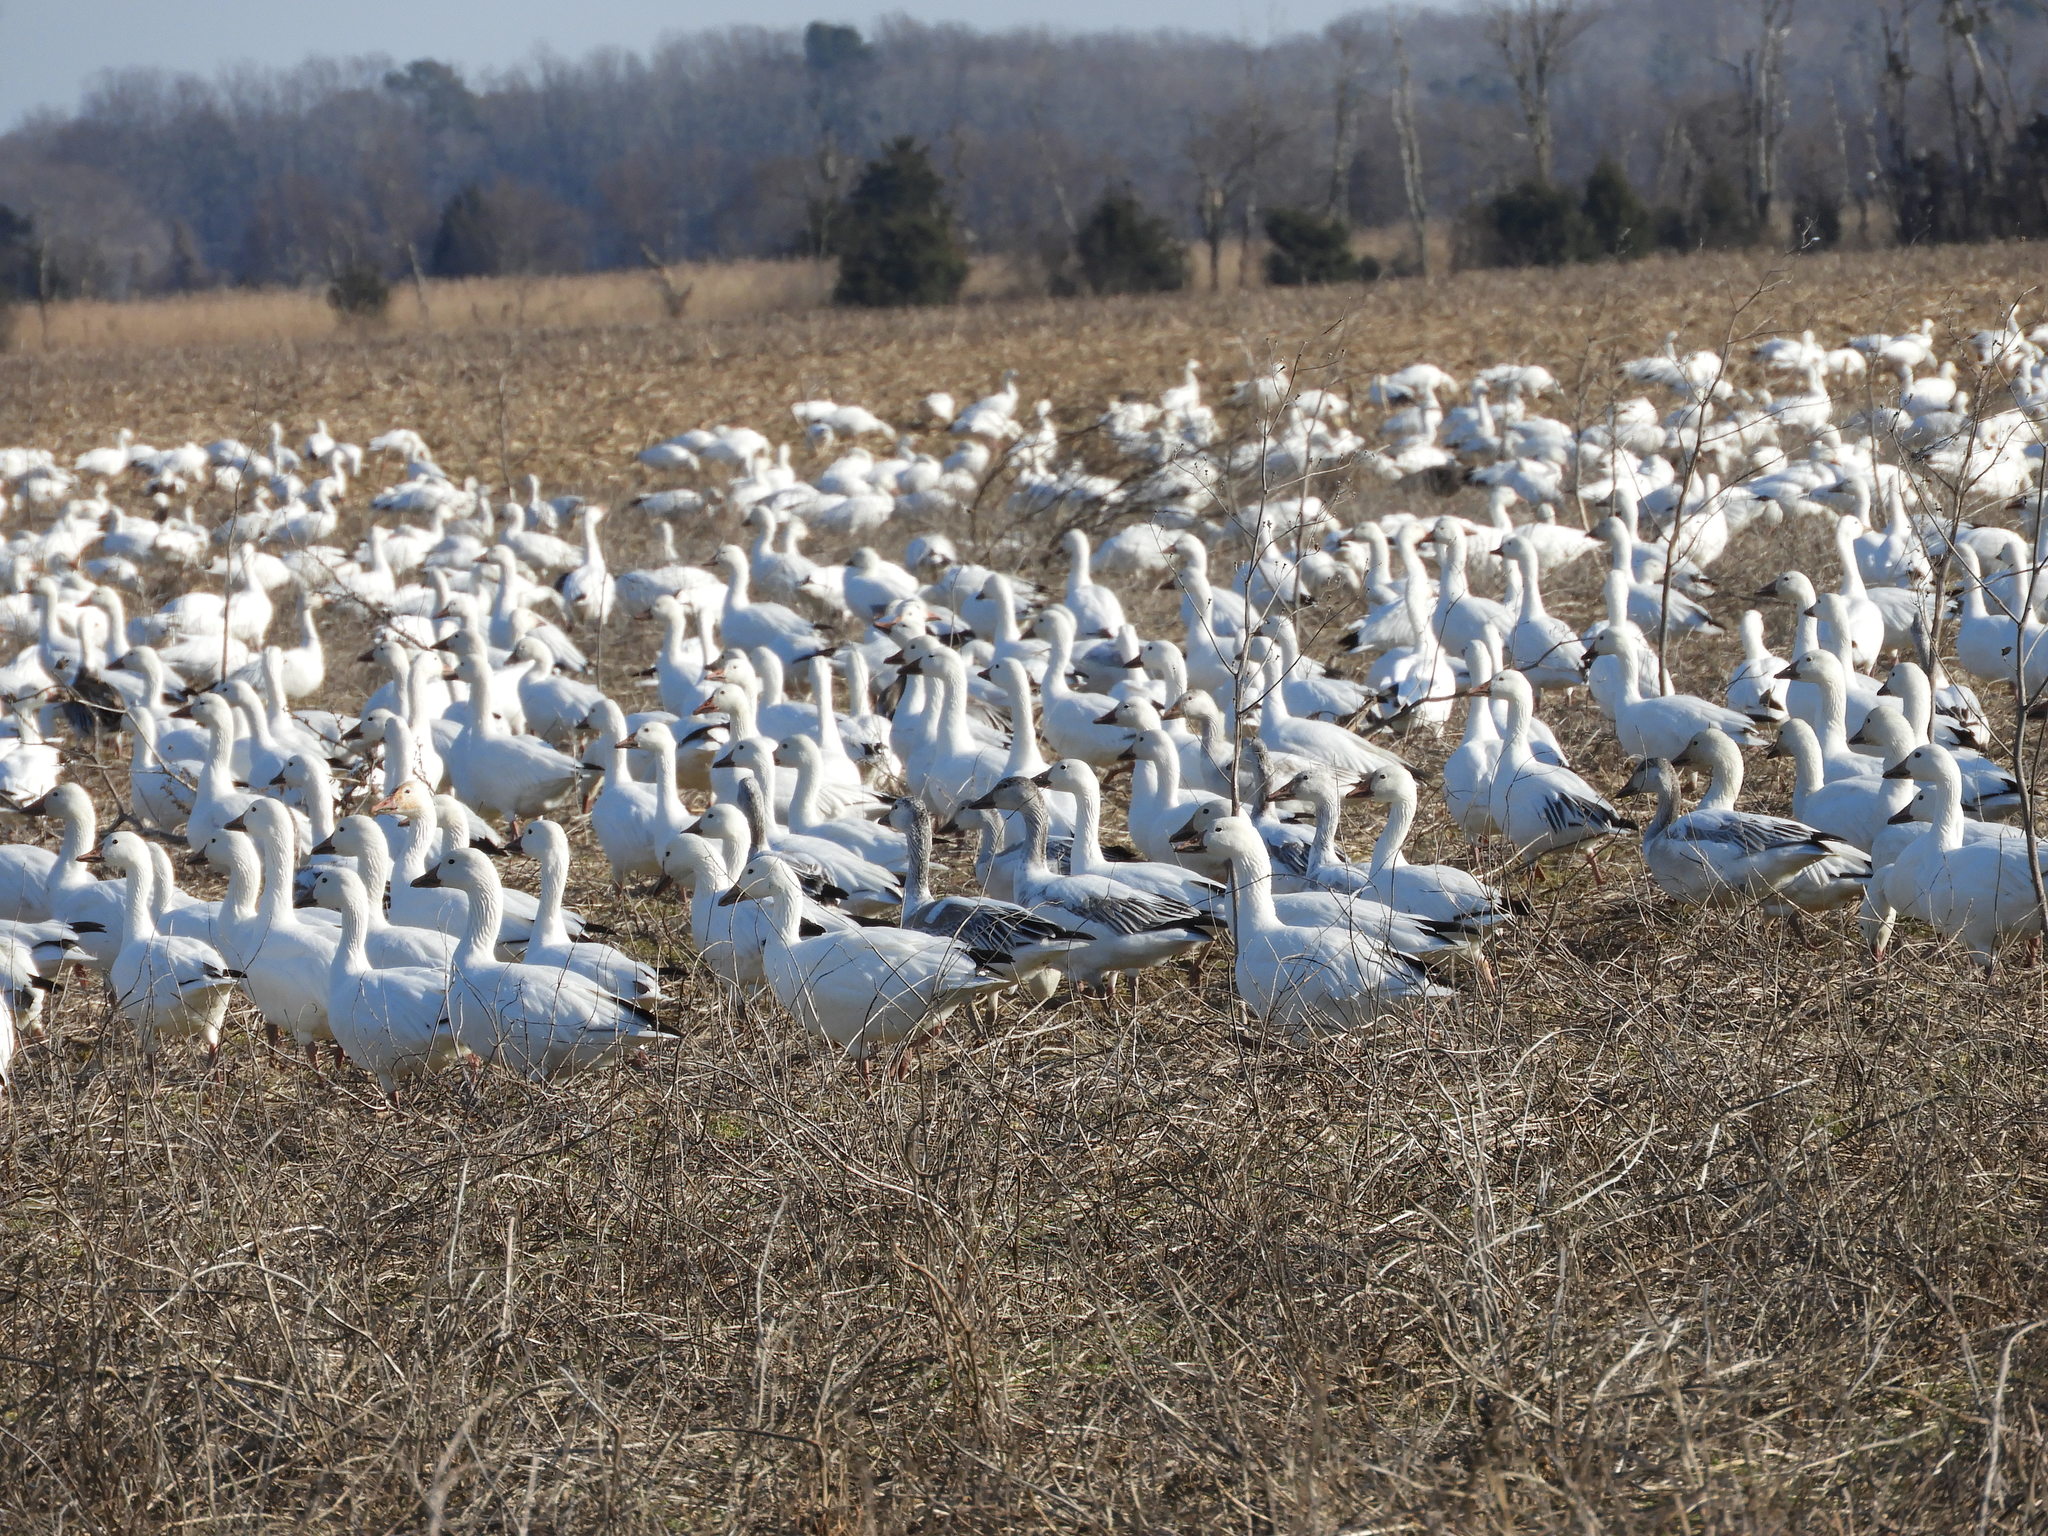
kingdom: Animalia
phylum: Chordata
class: Aves
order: Anseriformes
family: Anatidae
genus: Anser
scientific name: Anser caerulescens
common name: Snow goose
